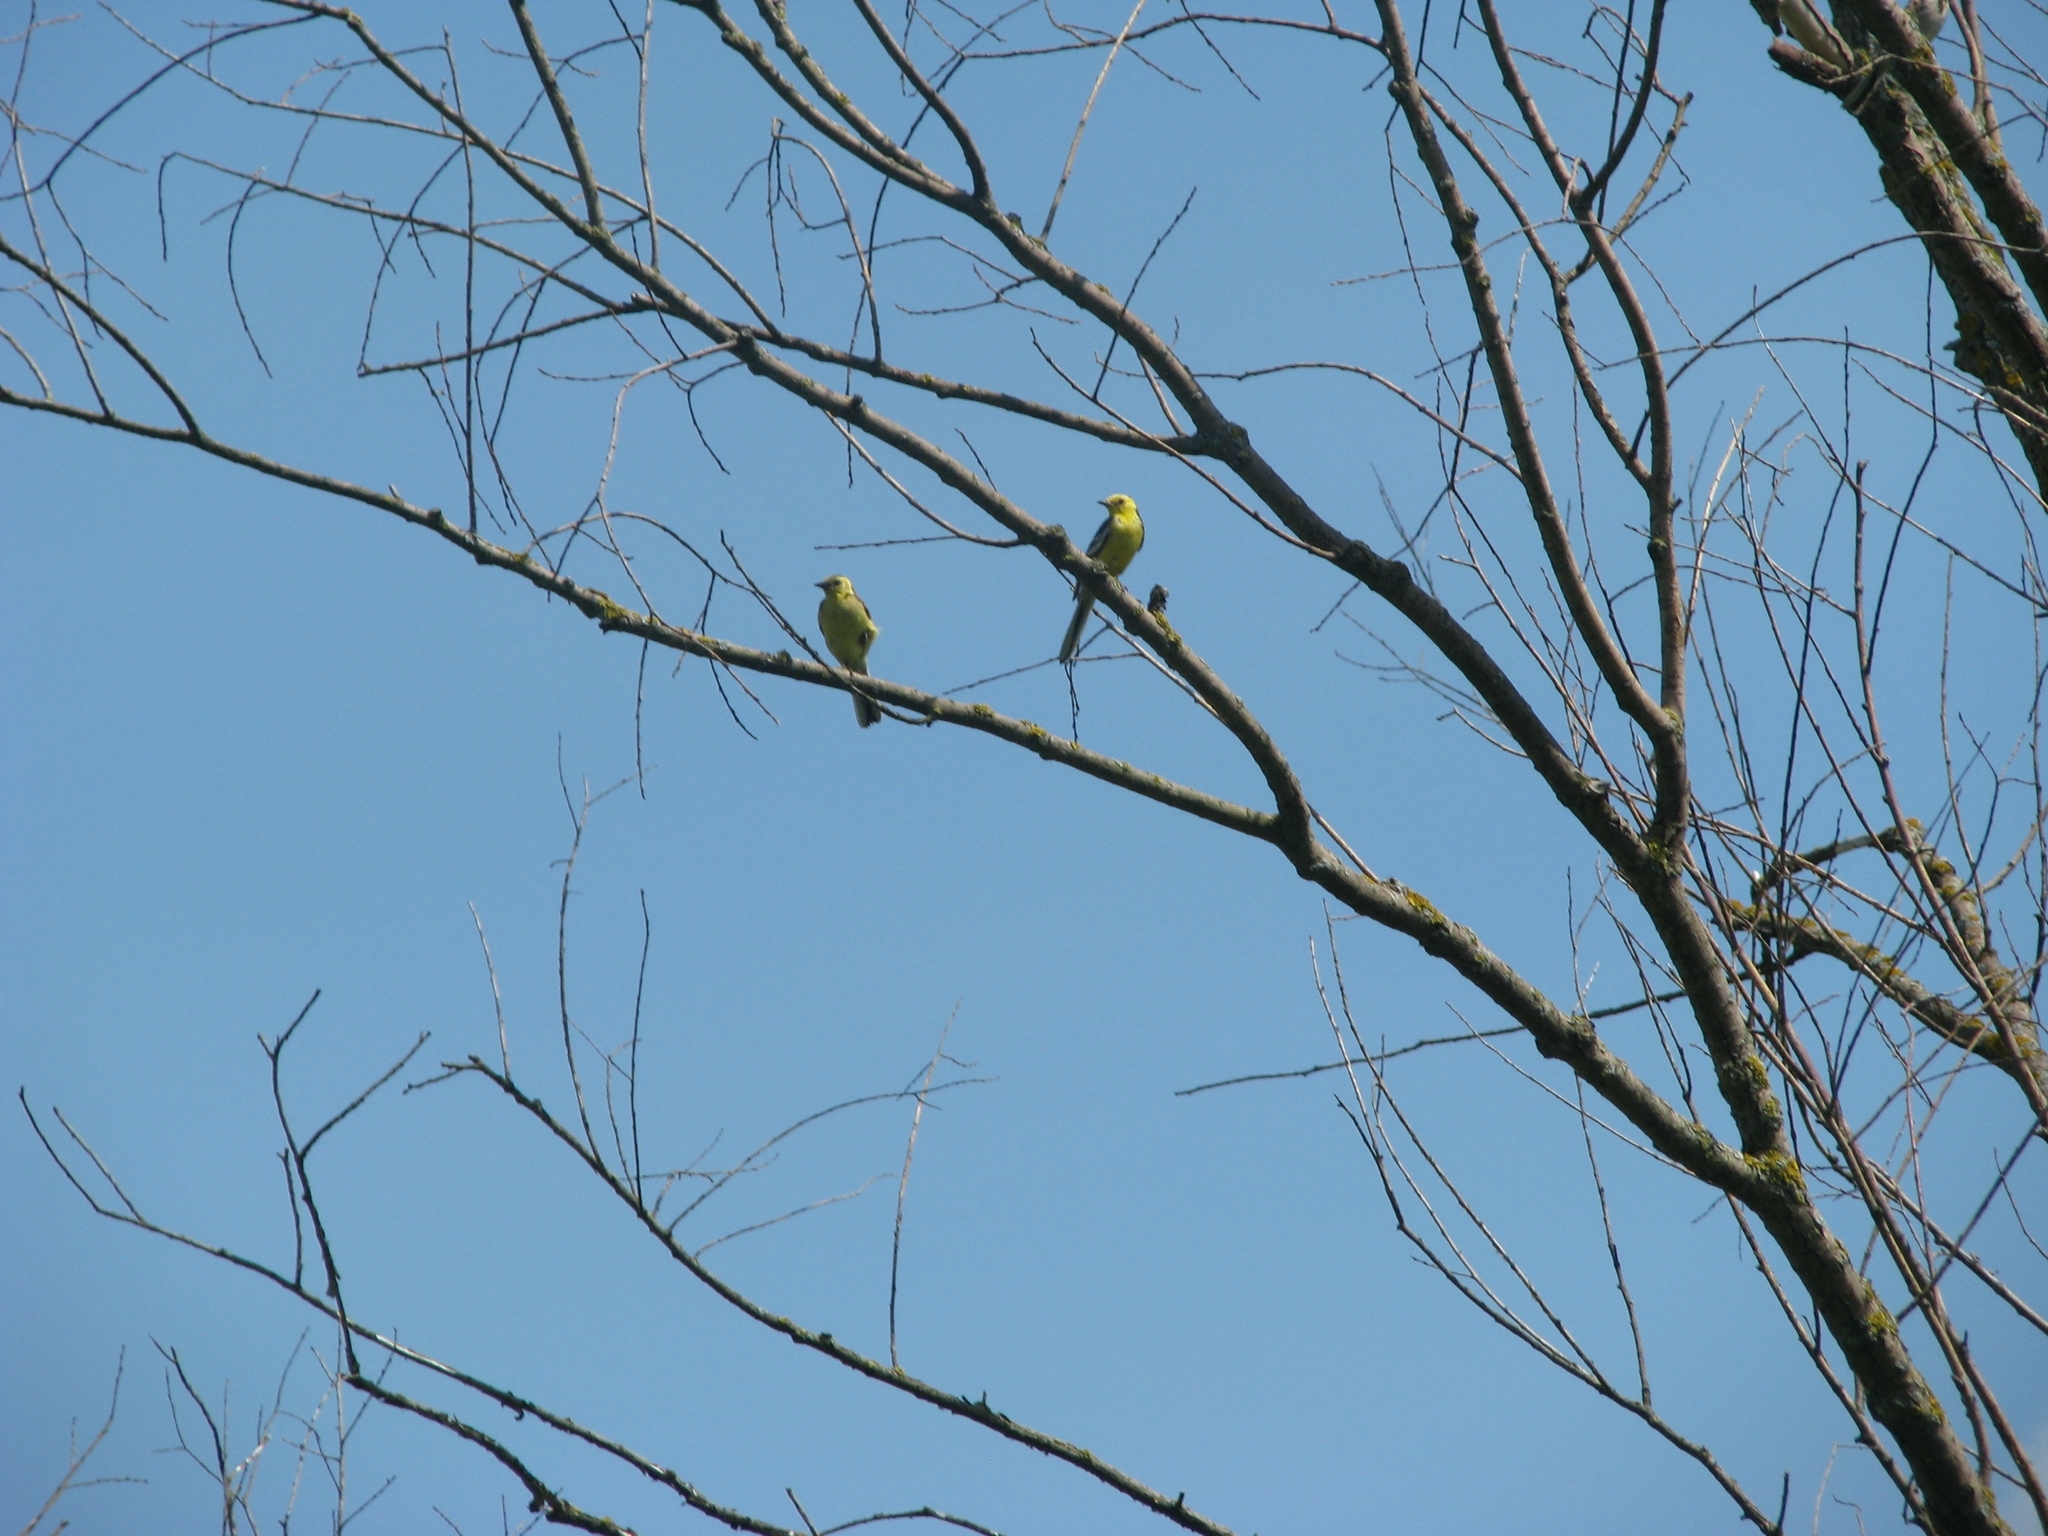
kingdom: Animalia
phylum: Chordata
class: Aves
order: Passeriformes
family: Motacillidae
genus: Motacilla
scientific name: Motacilla citreola
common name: Citrine wagtail
